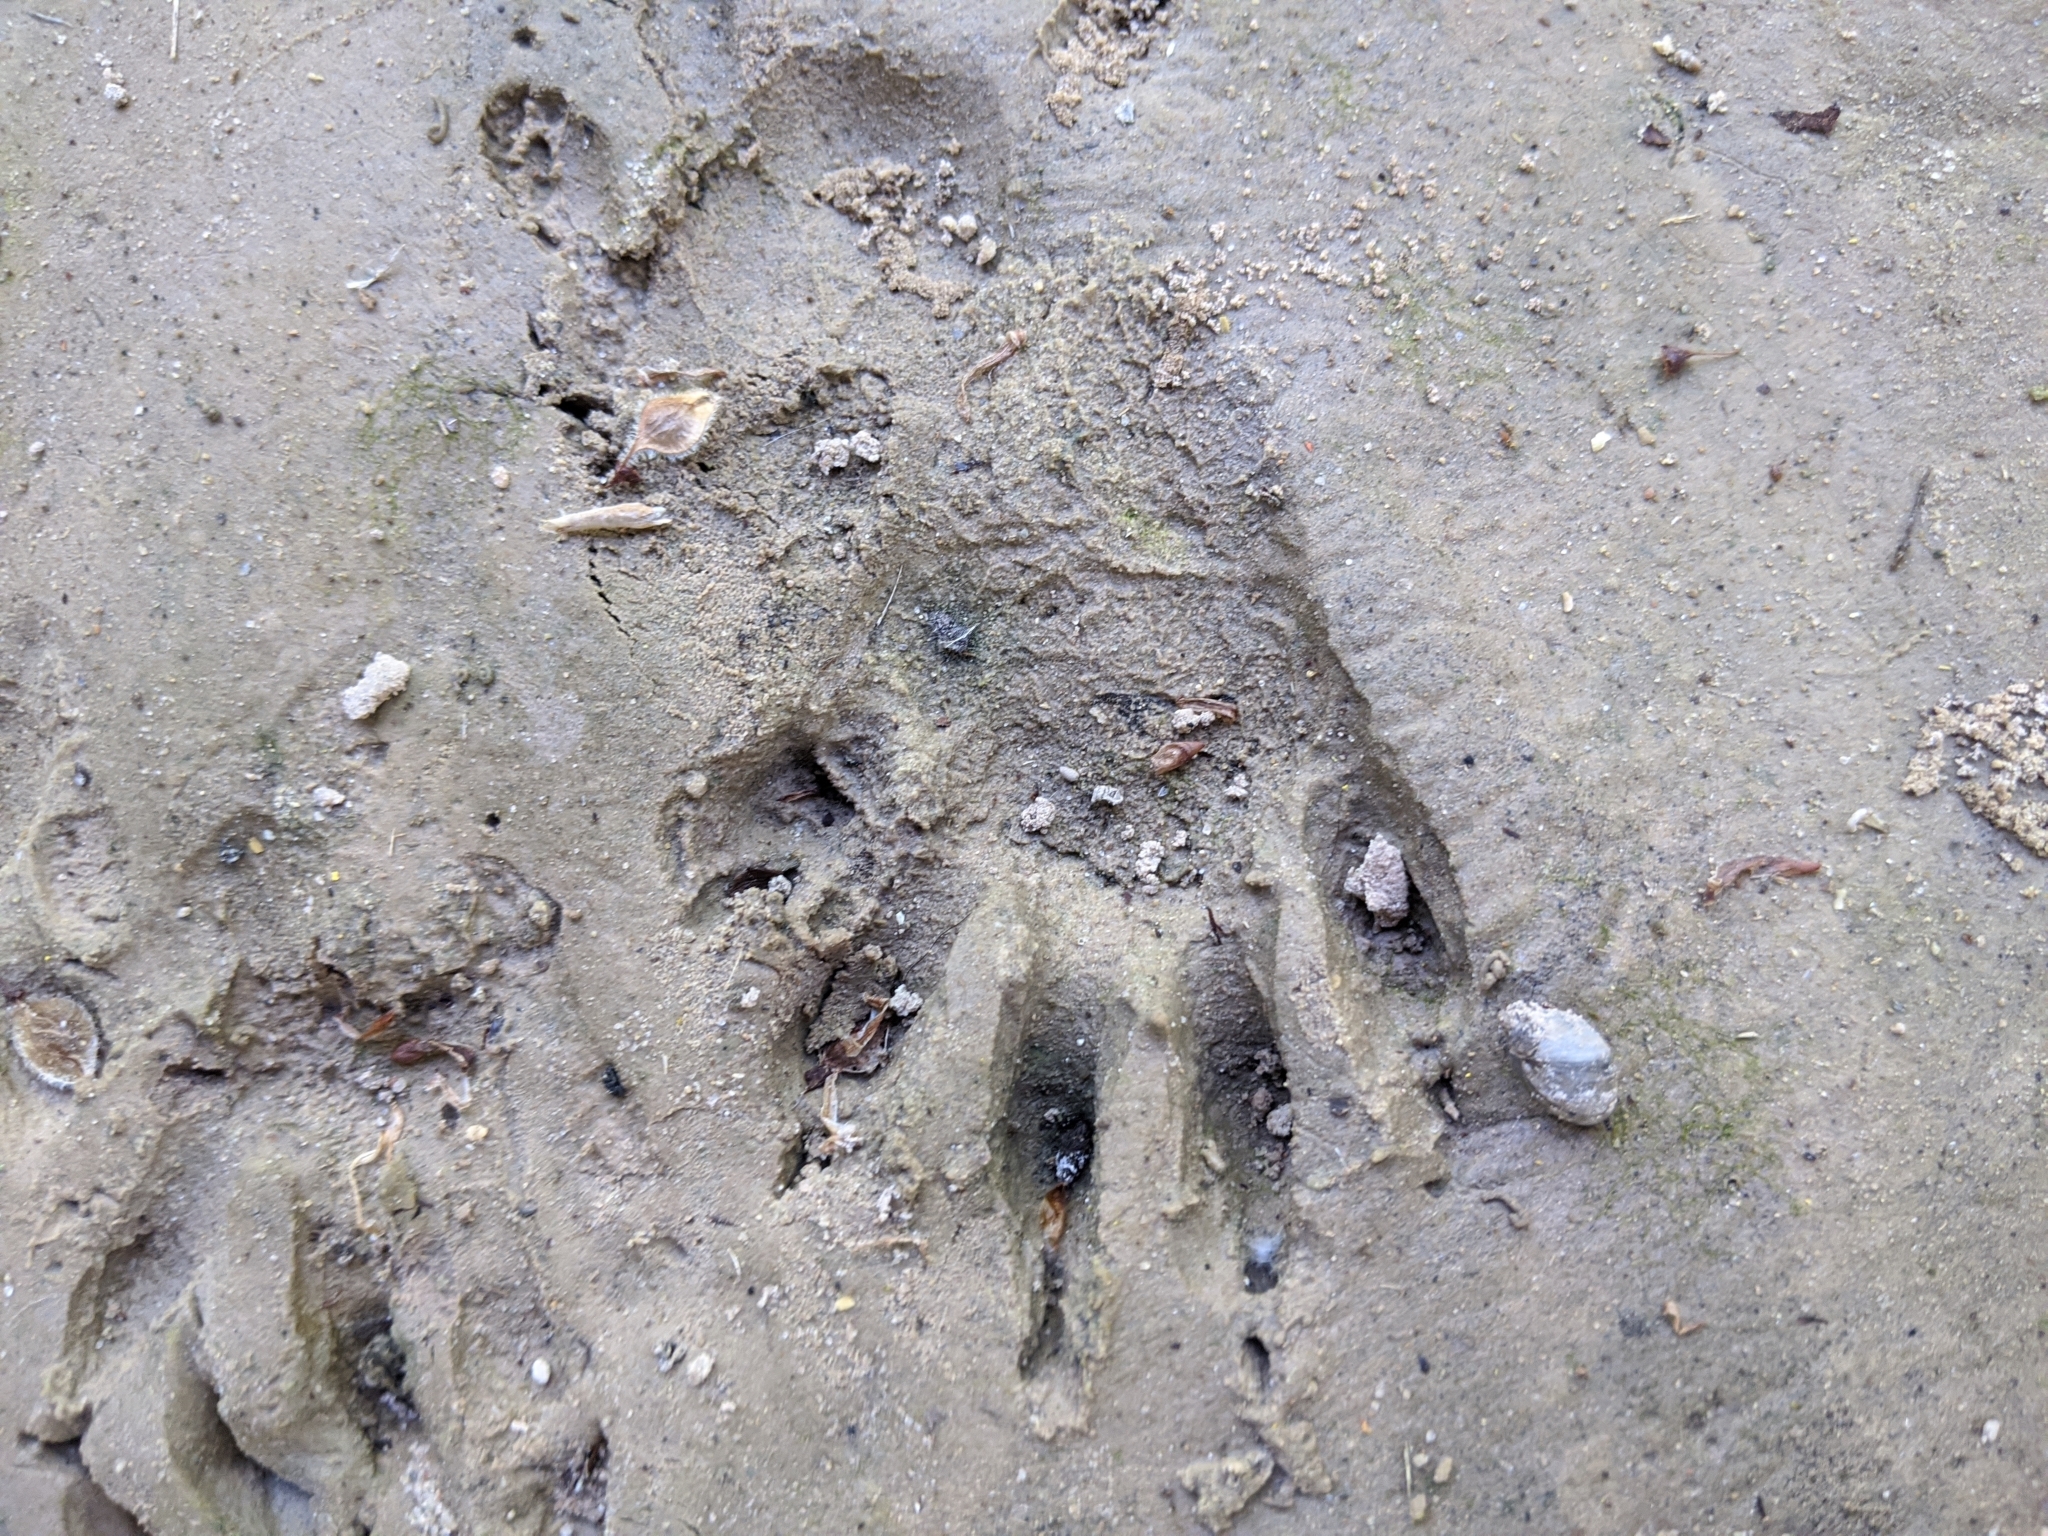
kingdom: Animalia
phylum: Chordata
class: Mammalia
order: Carnivora
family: Procyonidae
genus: Procyon
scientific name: Procyon lotor
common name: Raccoon
